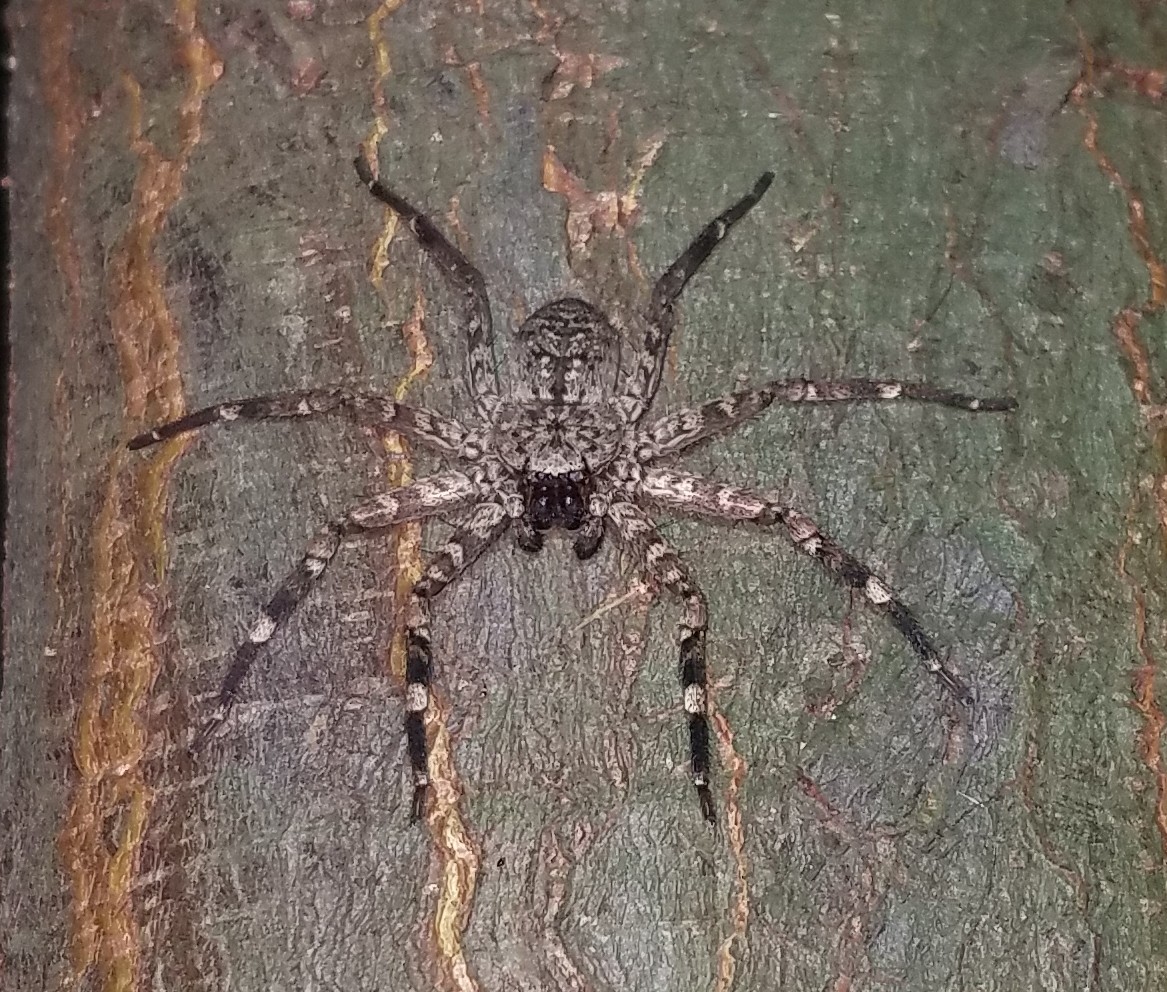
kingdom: Animalia
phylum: Arthropoda
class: Arachnida
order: Araneae
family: Selenopidae
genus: Selenops
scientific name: Selenops mexicanus
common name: Wall crab spiders
